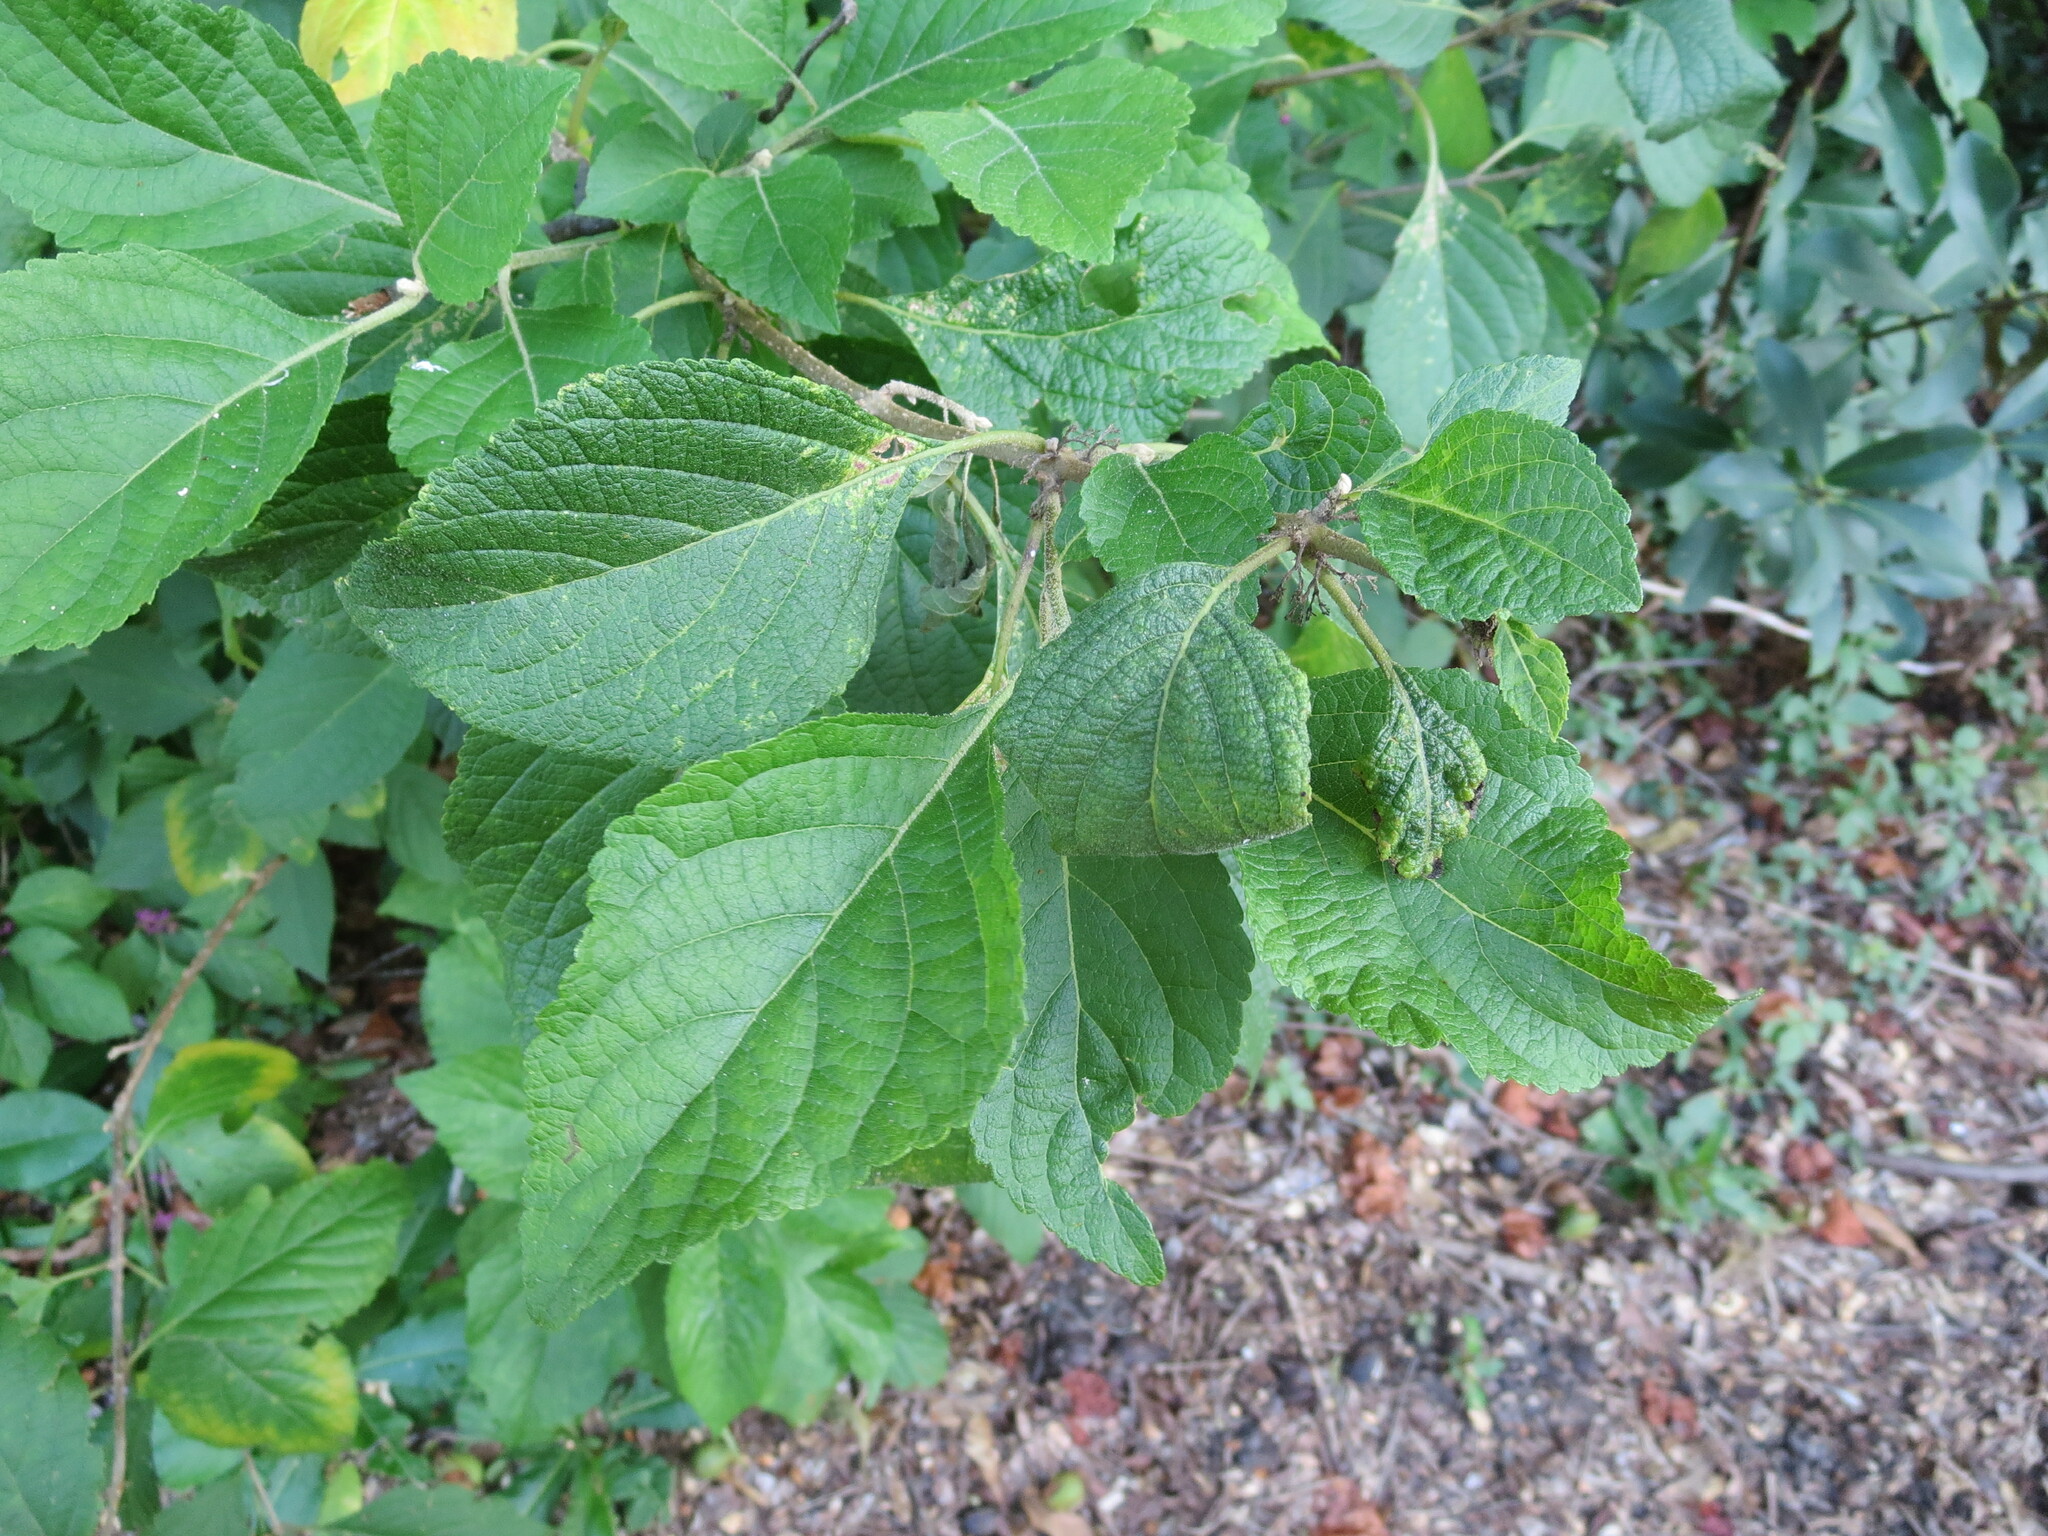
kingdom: Plantae
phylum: Tracheophyta
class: Magnoliopsida
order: Lamiales
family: Lamiaceae
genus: Callicarpa
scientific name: Callicarpa americana
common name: American beautyberry
